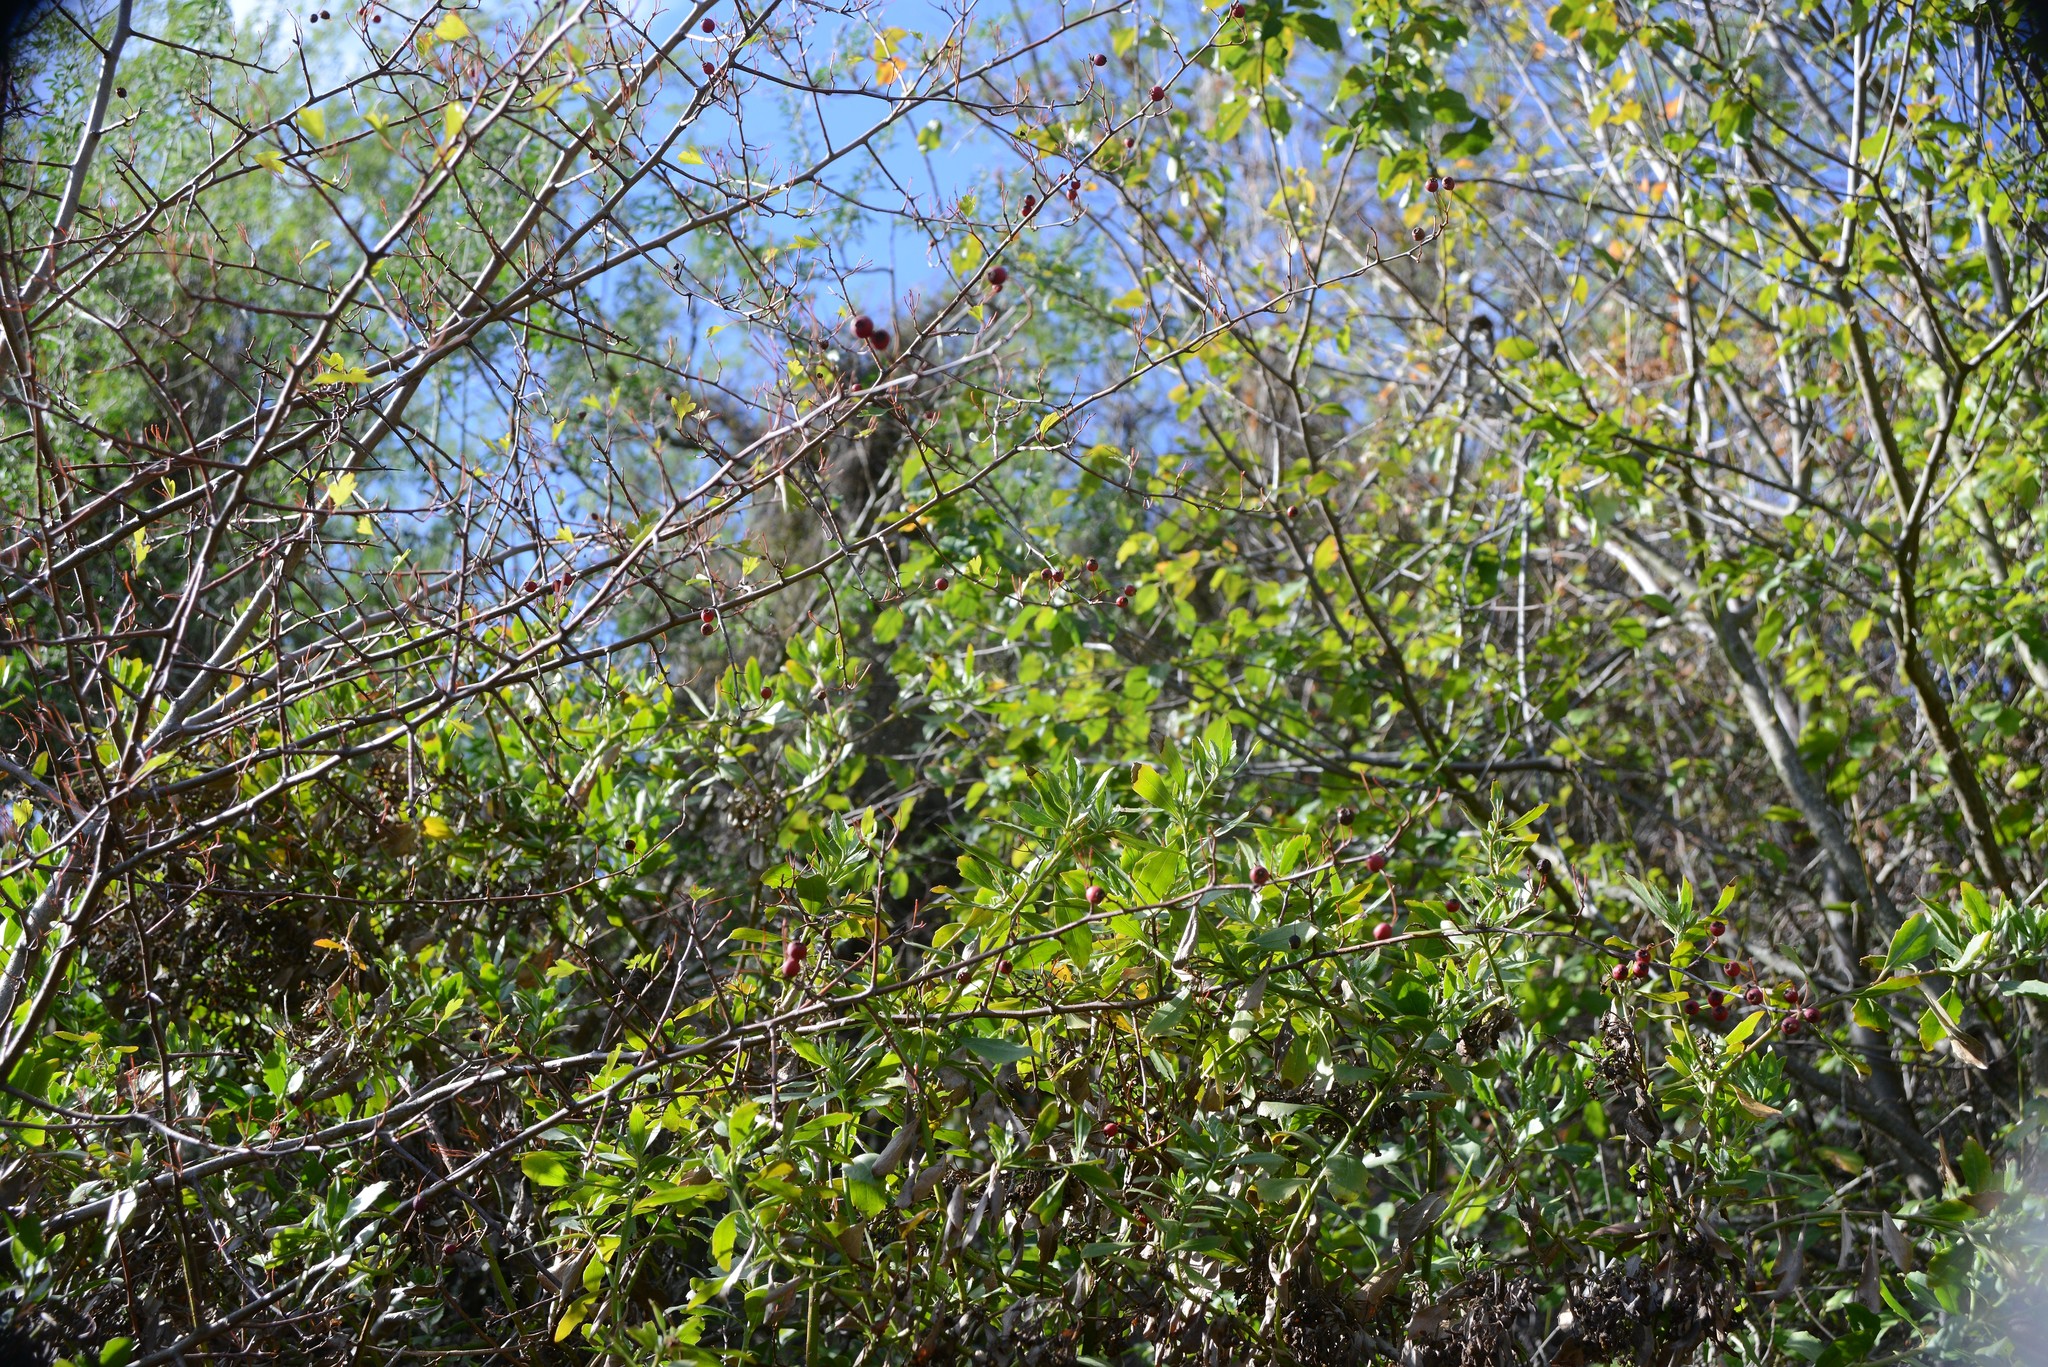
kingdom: Plantae
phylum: Tracheophyta
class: Magnoliopsida
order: Rosales
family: Rosaceae
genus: Crataegus
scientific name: Crataegus monogyna
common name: Hawthorn
